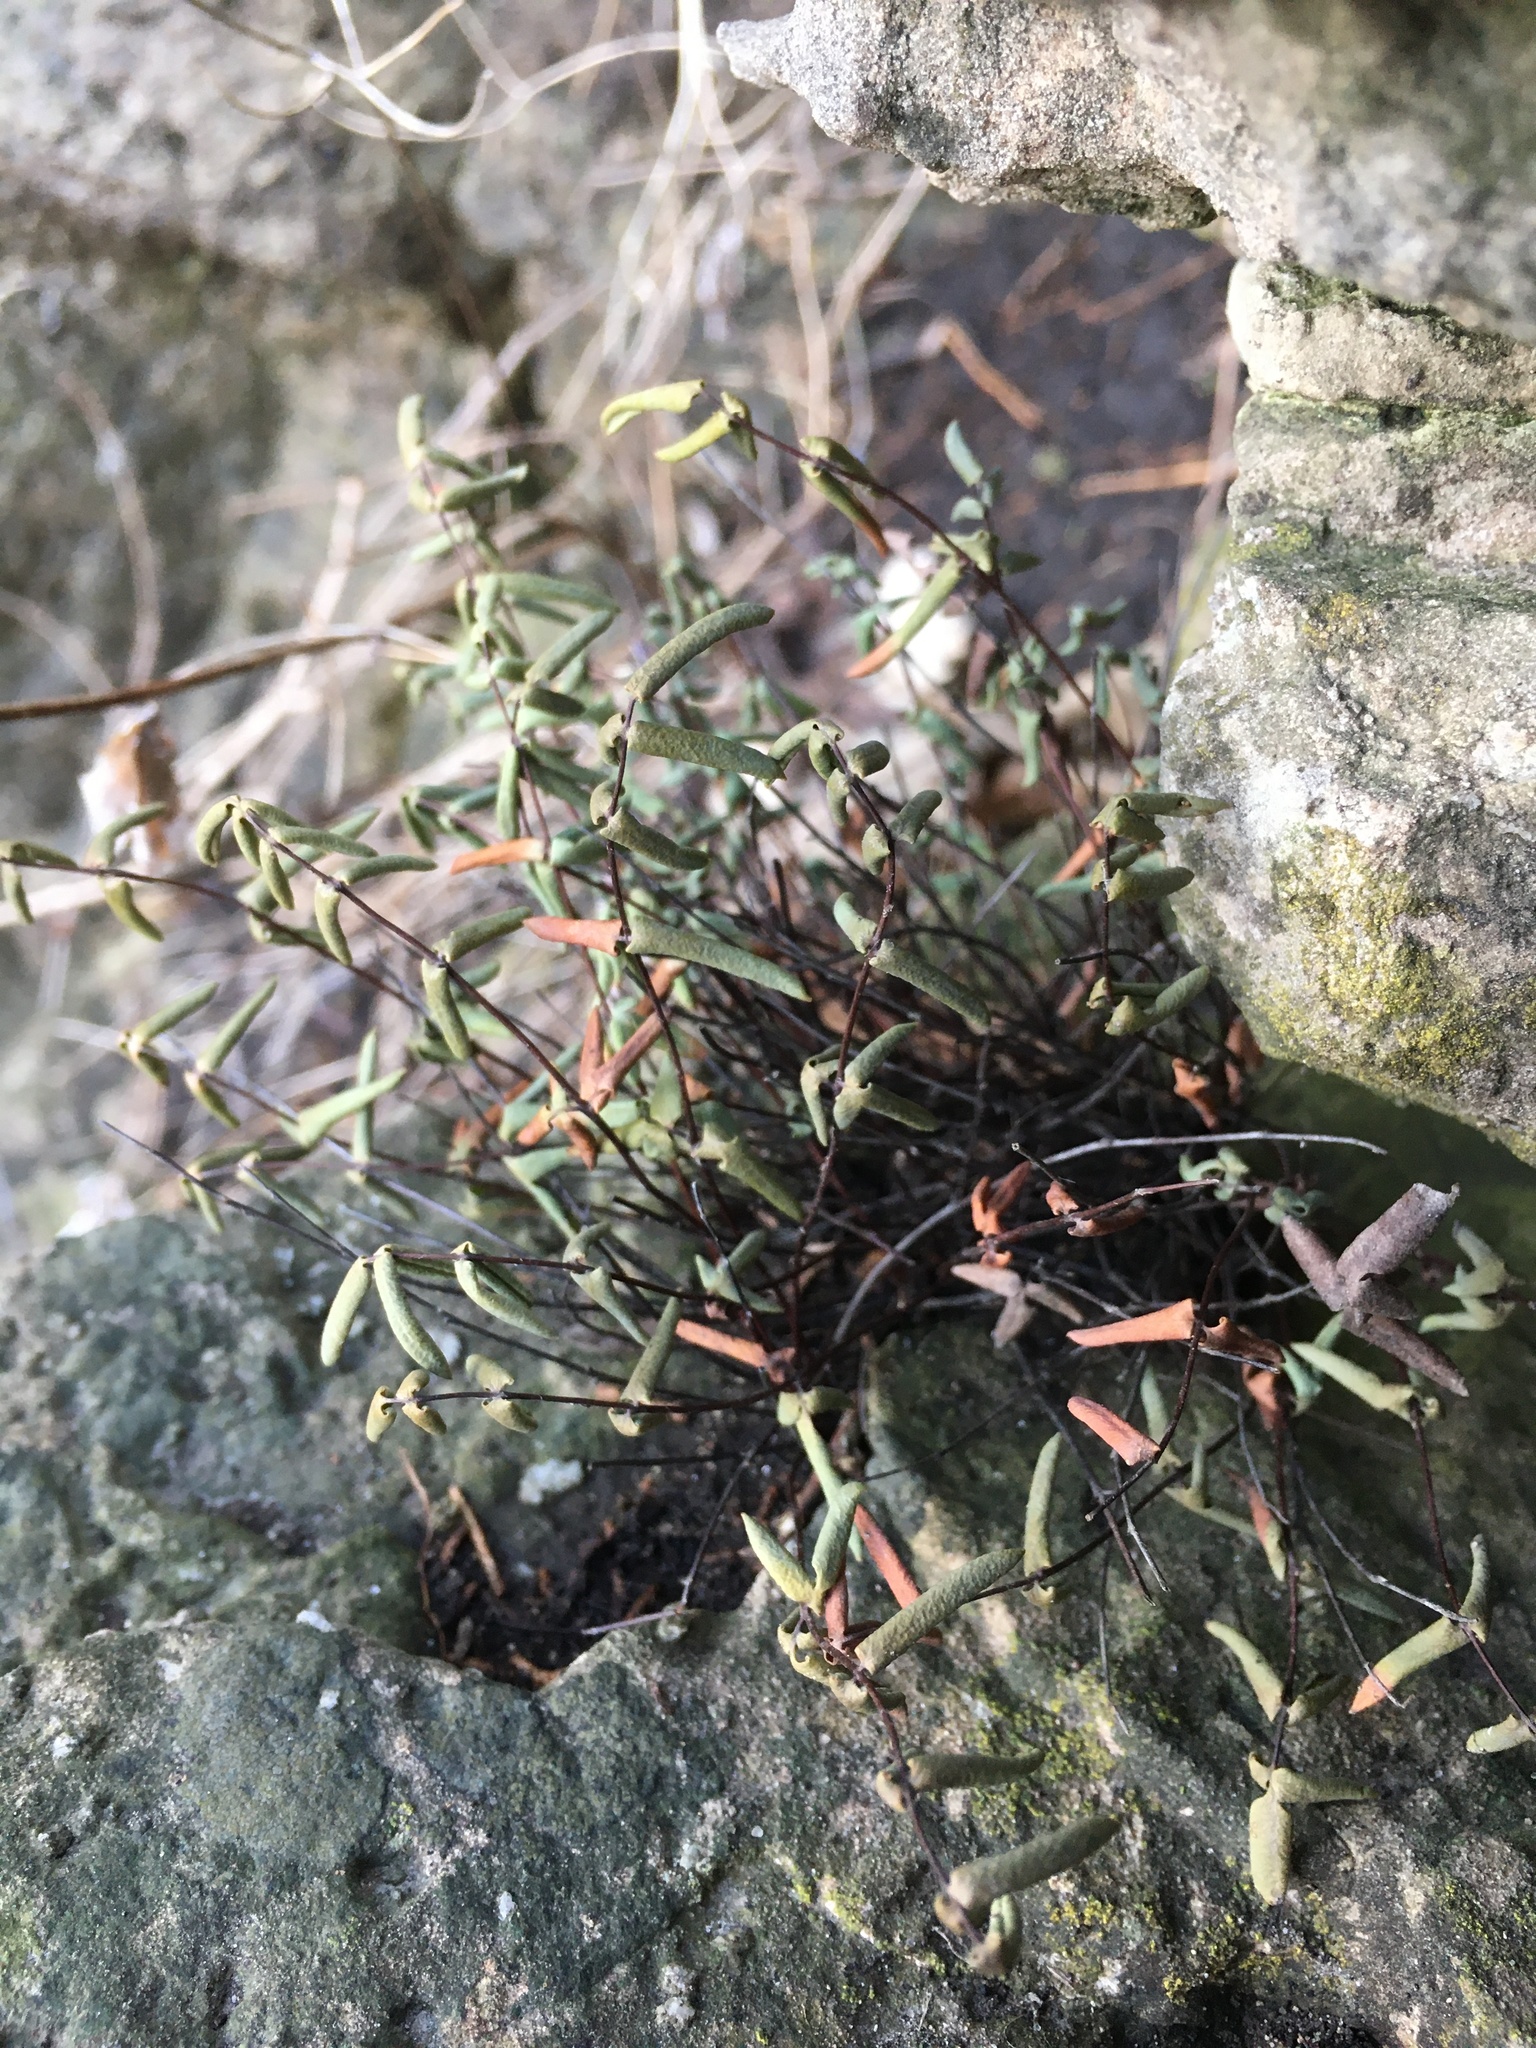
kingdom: Plantae
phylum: Tracheophyta
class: Polypodiopsida
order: Polypodiales
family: Pteridaceae
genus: Pellaea
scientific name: Pellaea glabella
